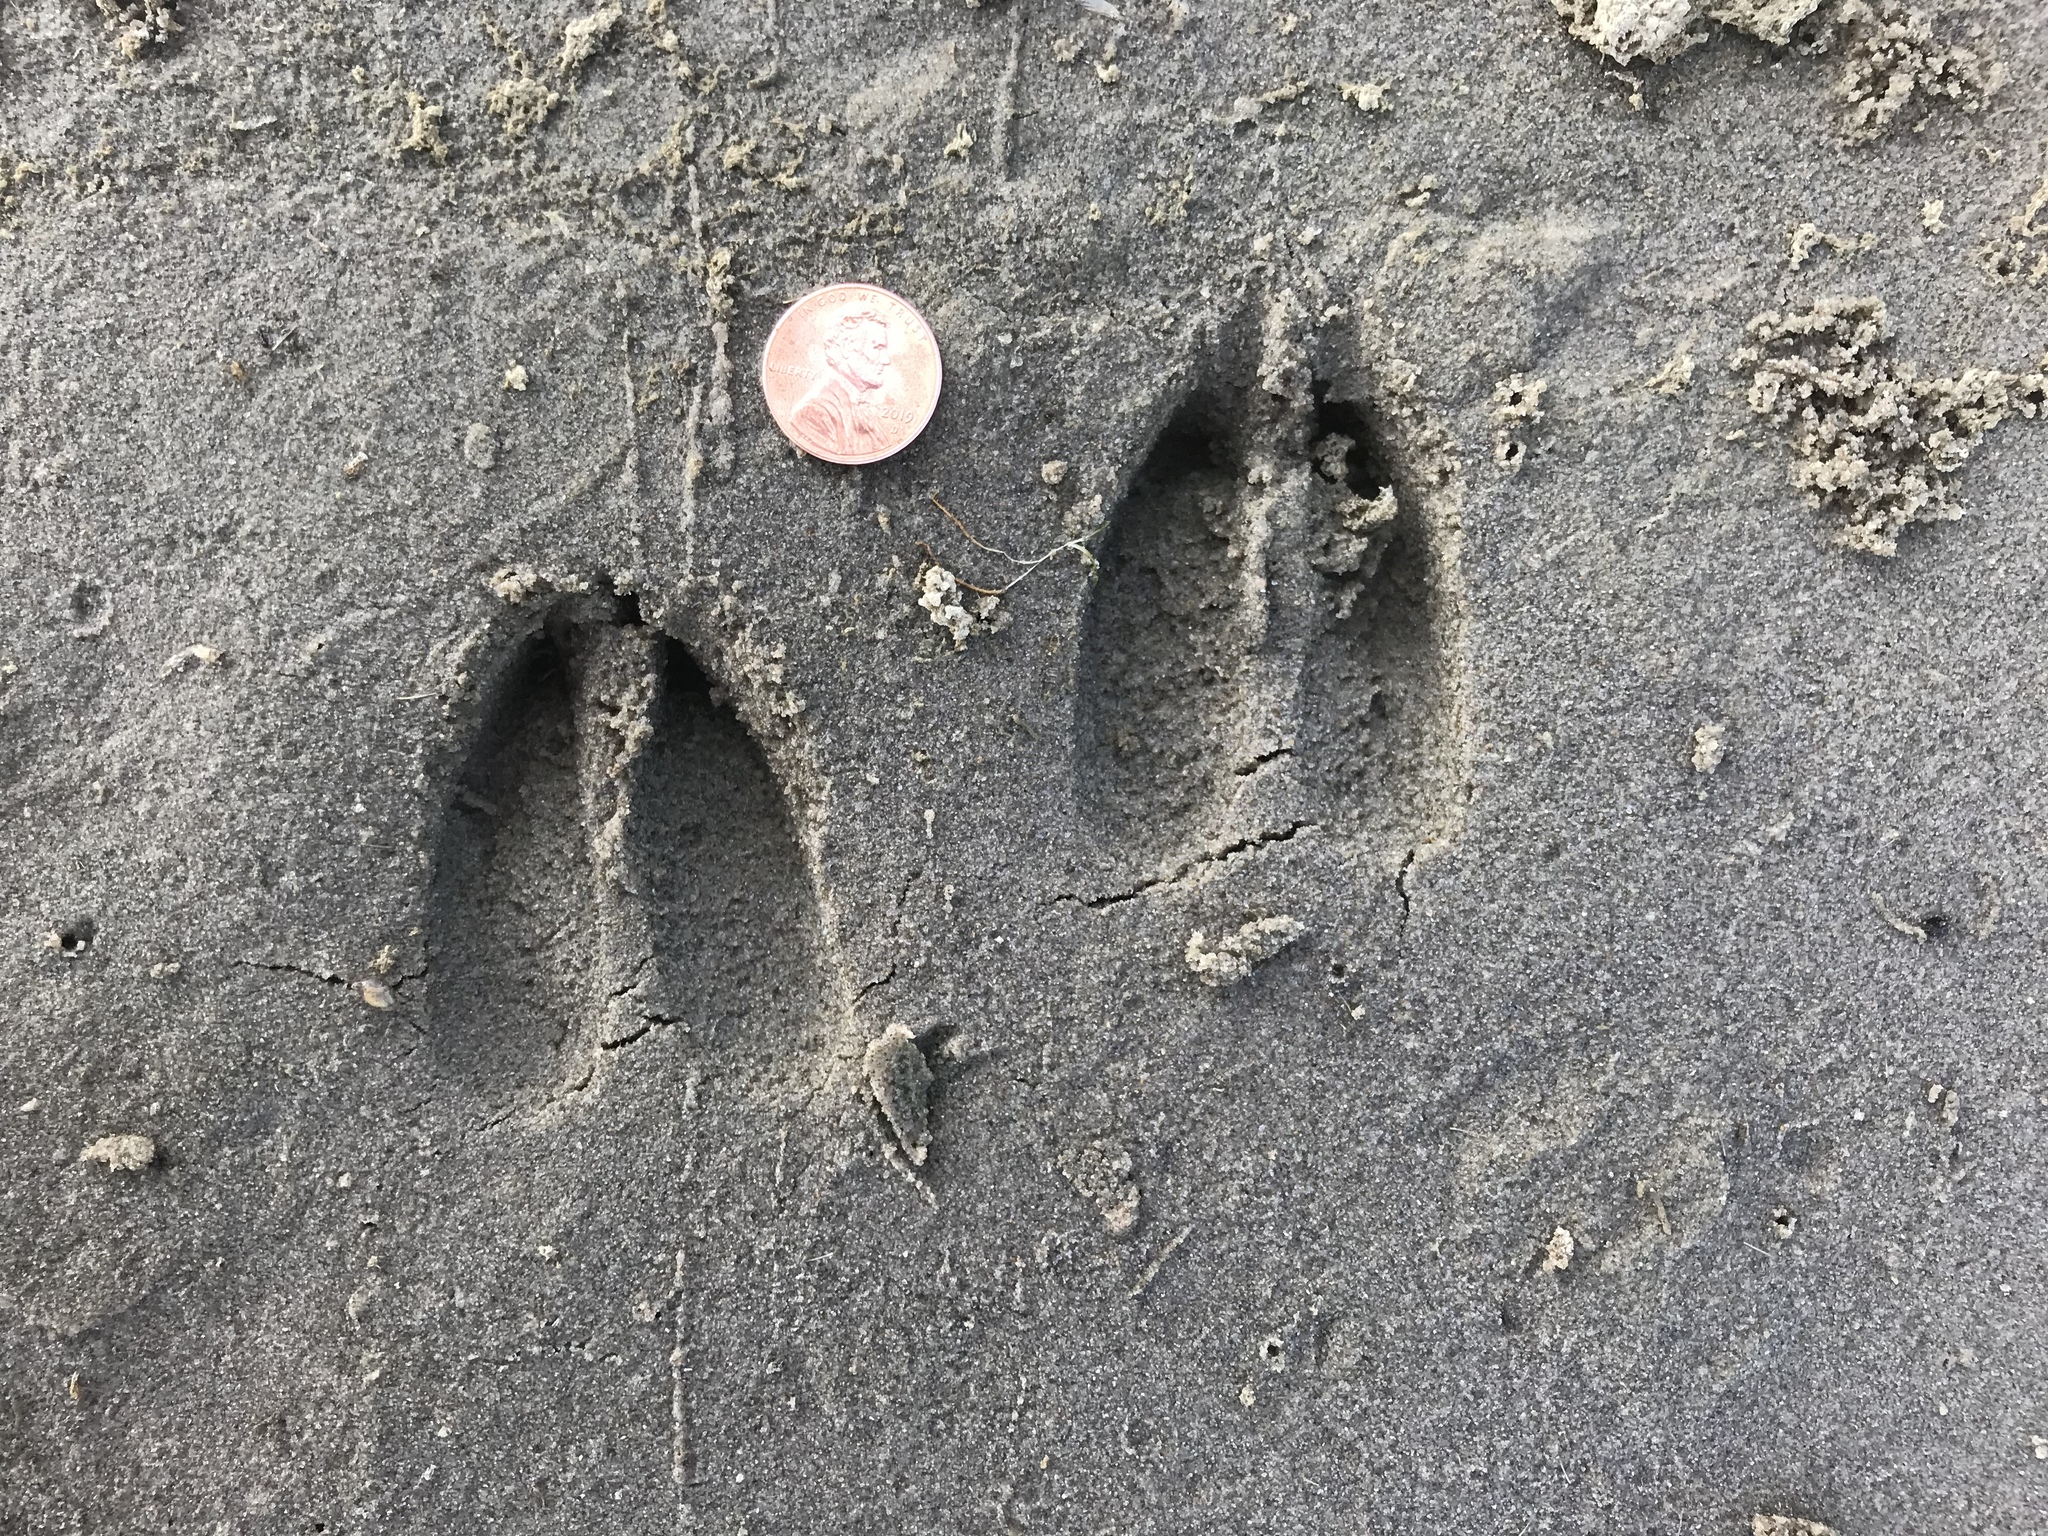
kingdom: Animalia
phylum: Chordata
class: Mammalia
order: Artiodactyla
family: Cervidae
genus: Odocoileus
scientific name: Odocoileus virginianus
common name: White-tailed deer
